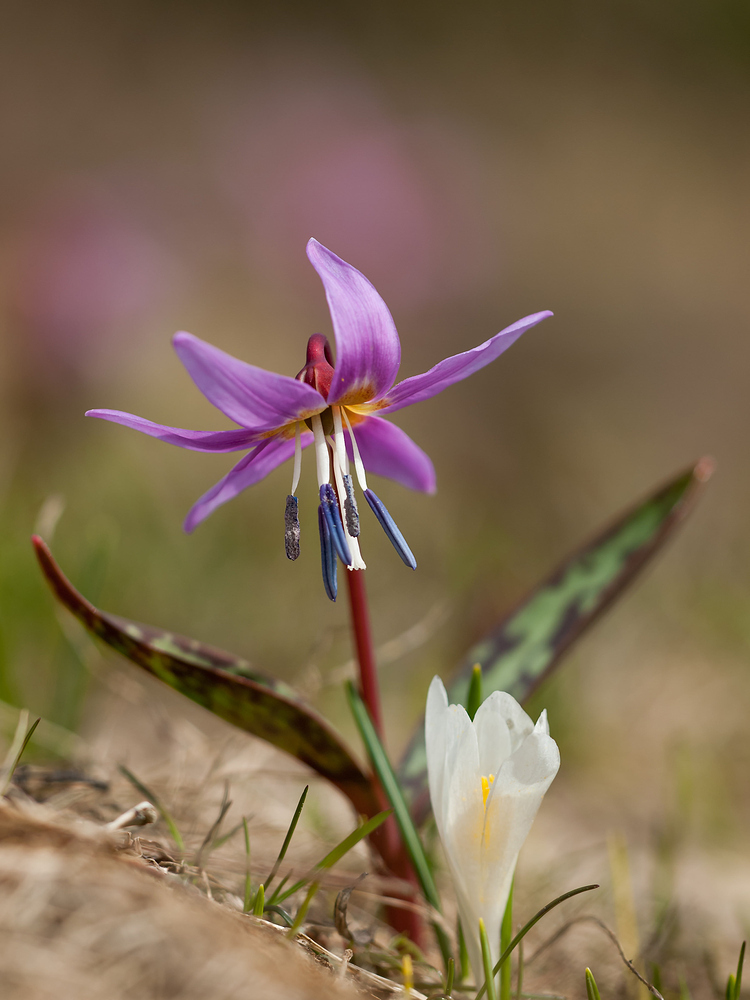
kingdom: Plantae
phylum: Tracheophyta
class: Liliopsida
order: Liliales
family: Liliaceae
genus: Erythronium
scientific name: Erythronium dens-canis
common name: Dog's-tooth-violet
